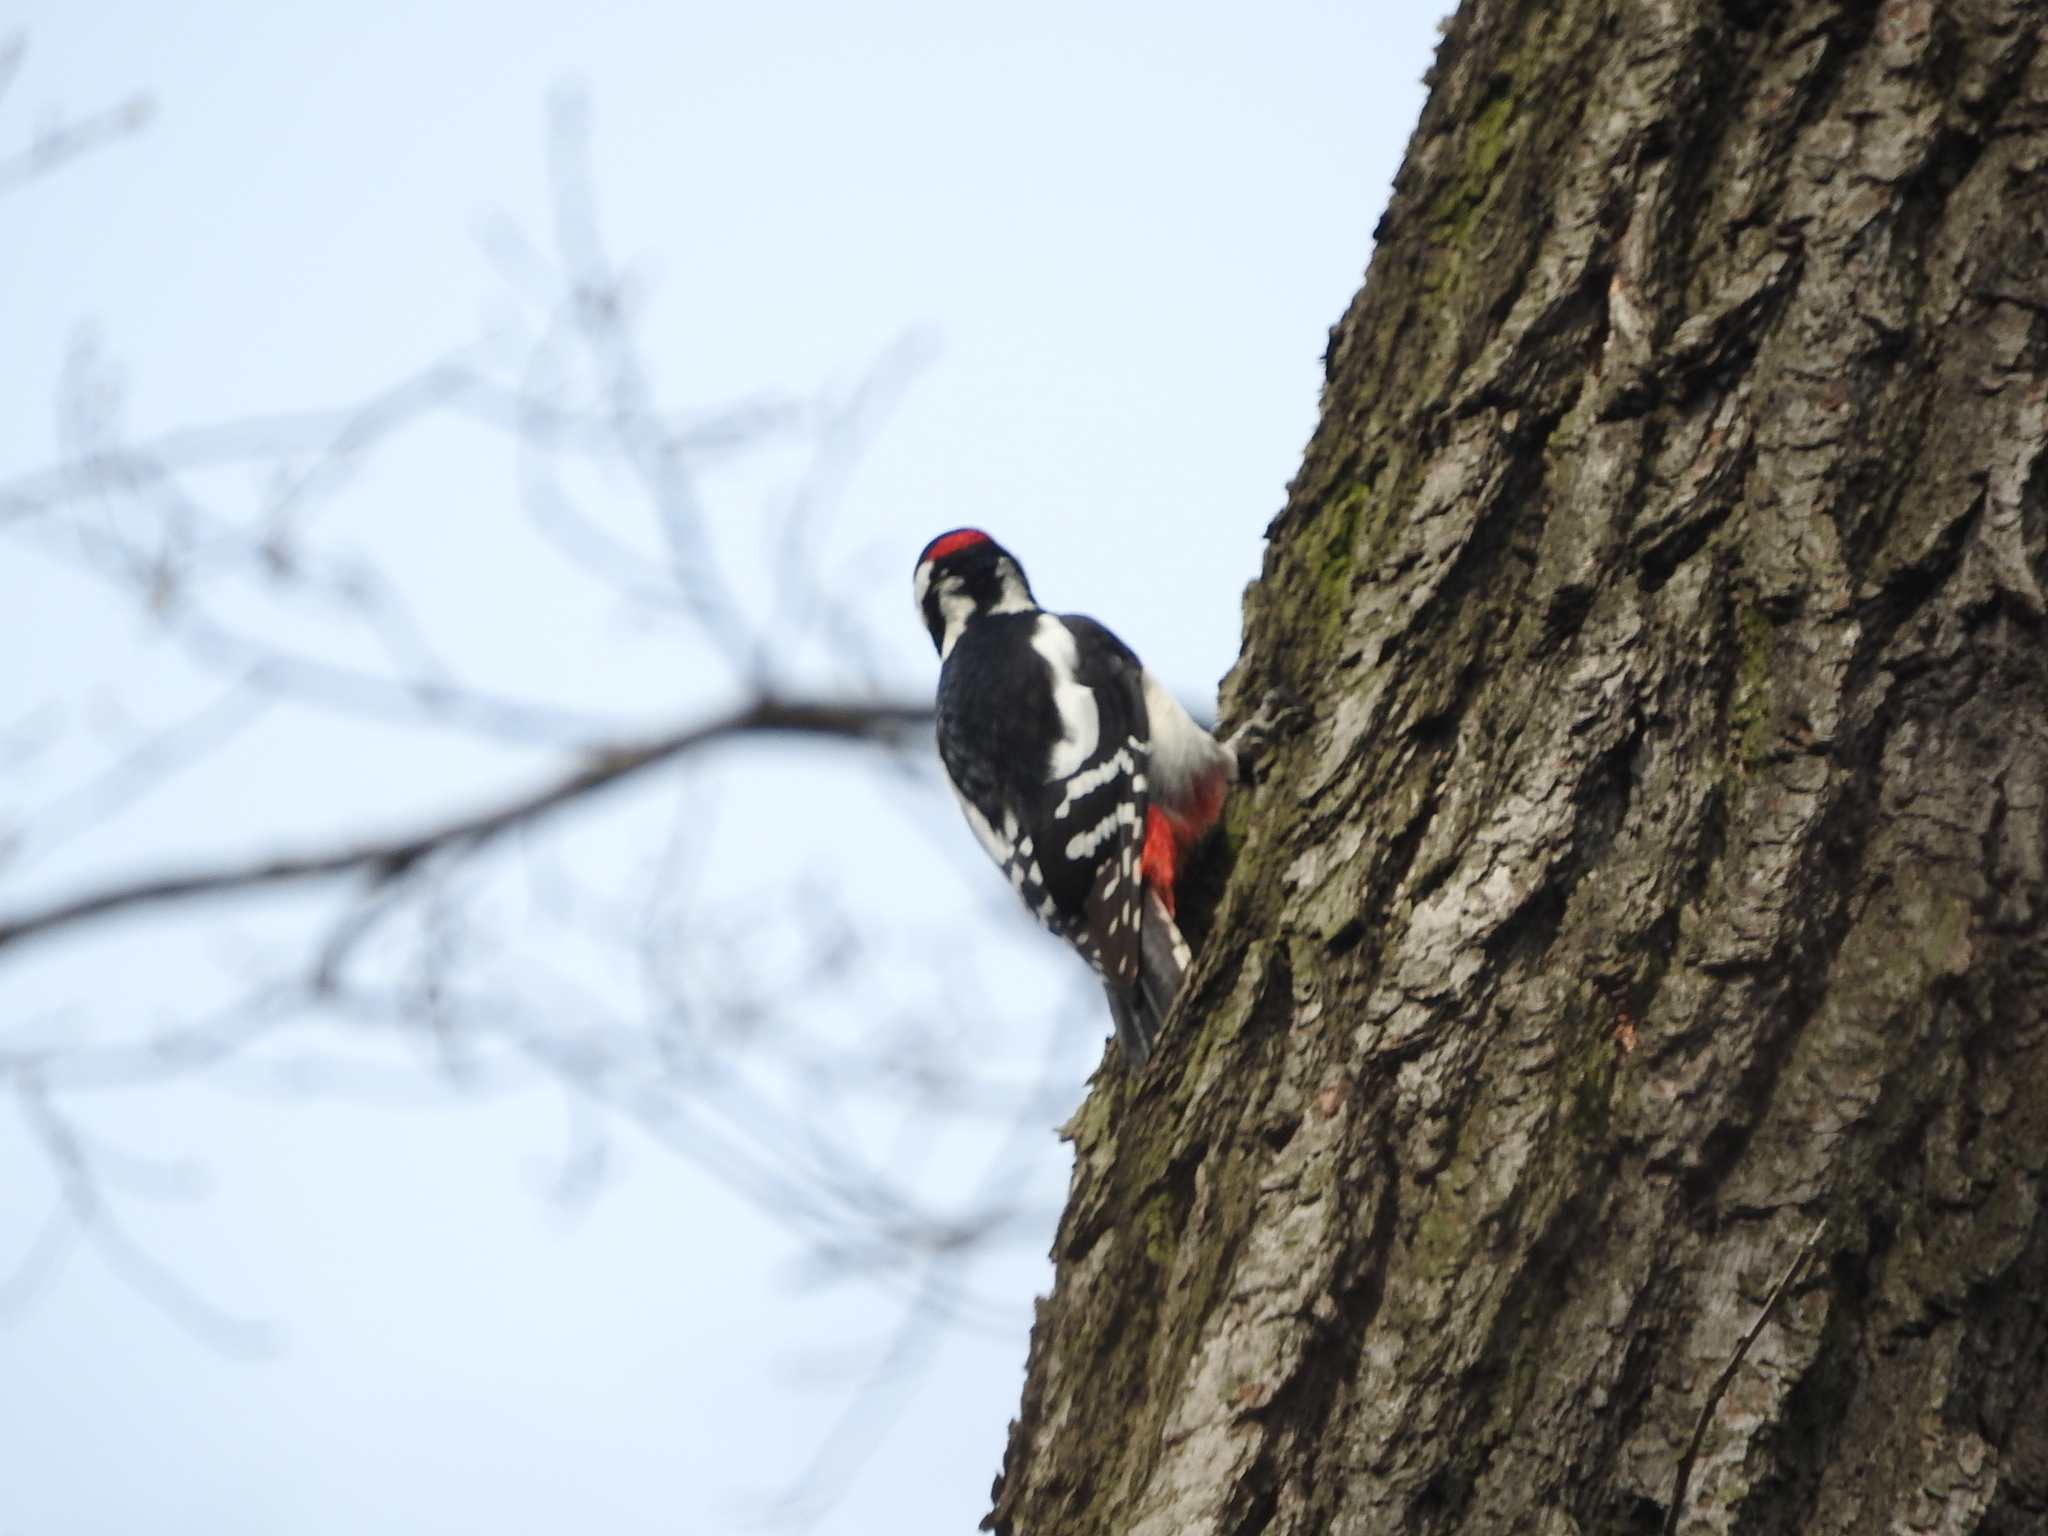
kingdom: Animalia
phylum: Chordata
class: Aves
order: Piciformes
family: Picidae
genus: Dendrocopos
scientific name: Dendrocopos major
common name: Great spotted woodpecker
